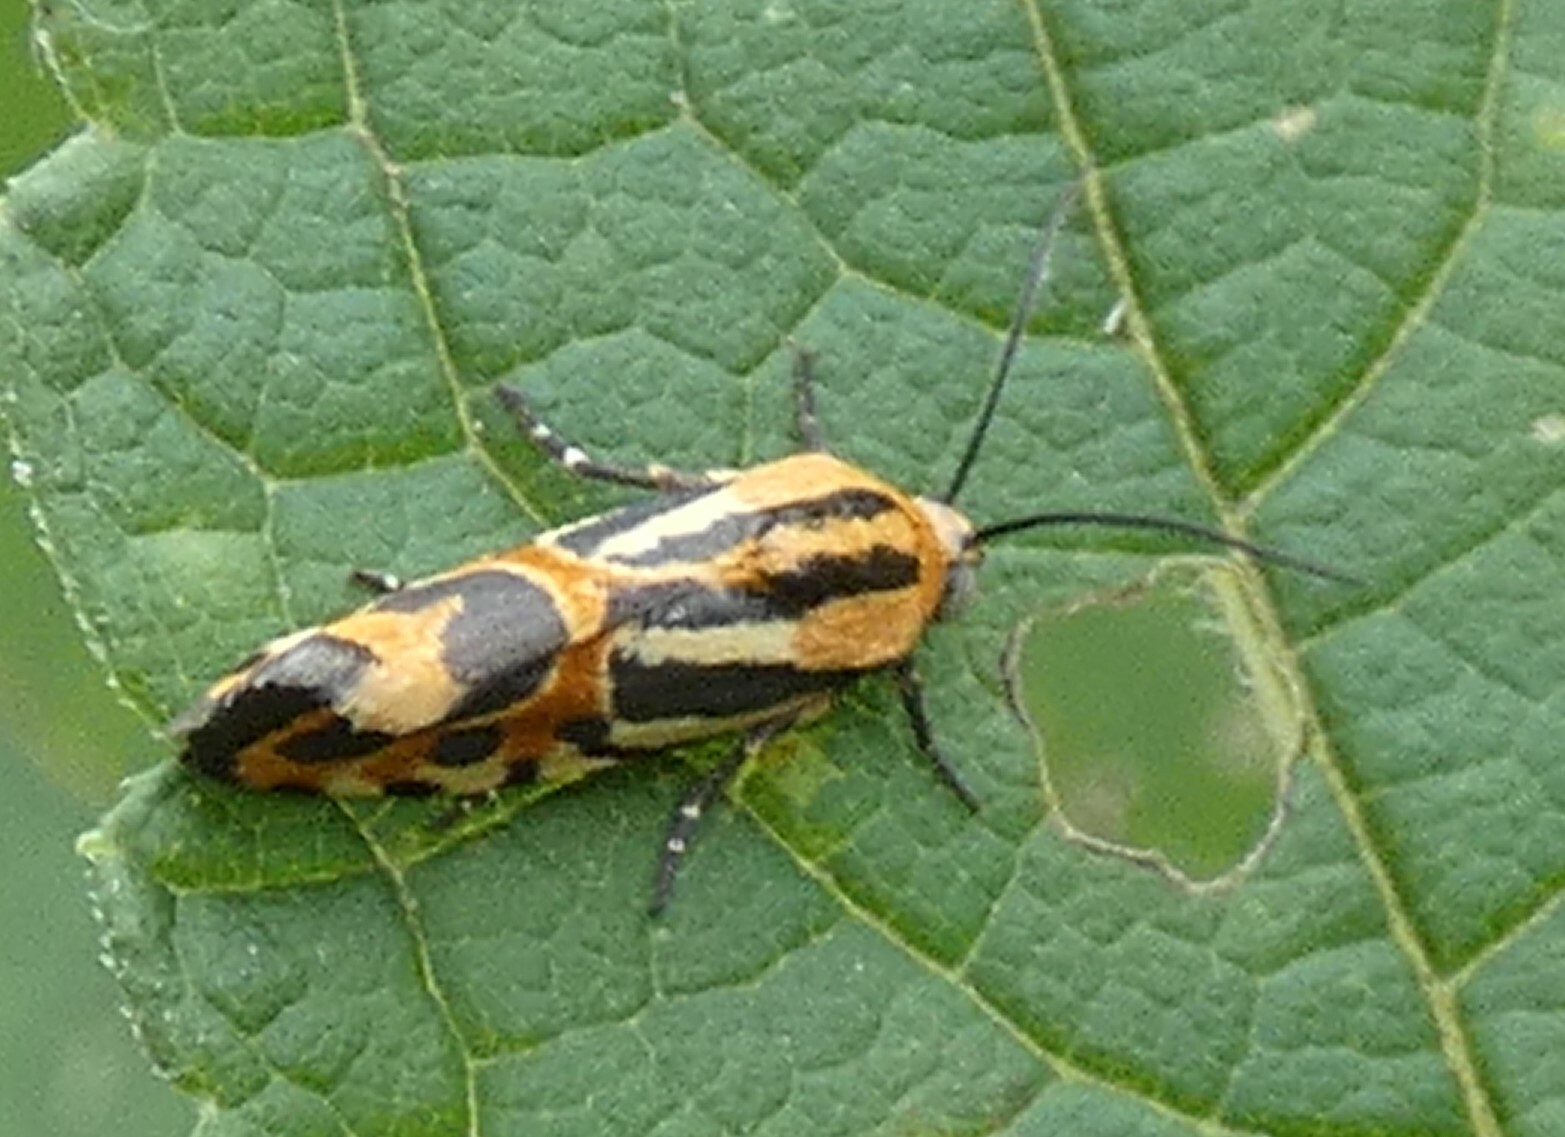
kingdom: Animalia
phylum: Arthropoda
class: Insecta
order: Lepidoptera
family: Noctuidae
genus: Acontia
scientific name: Acontia onagrus
